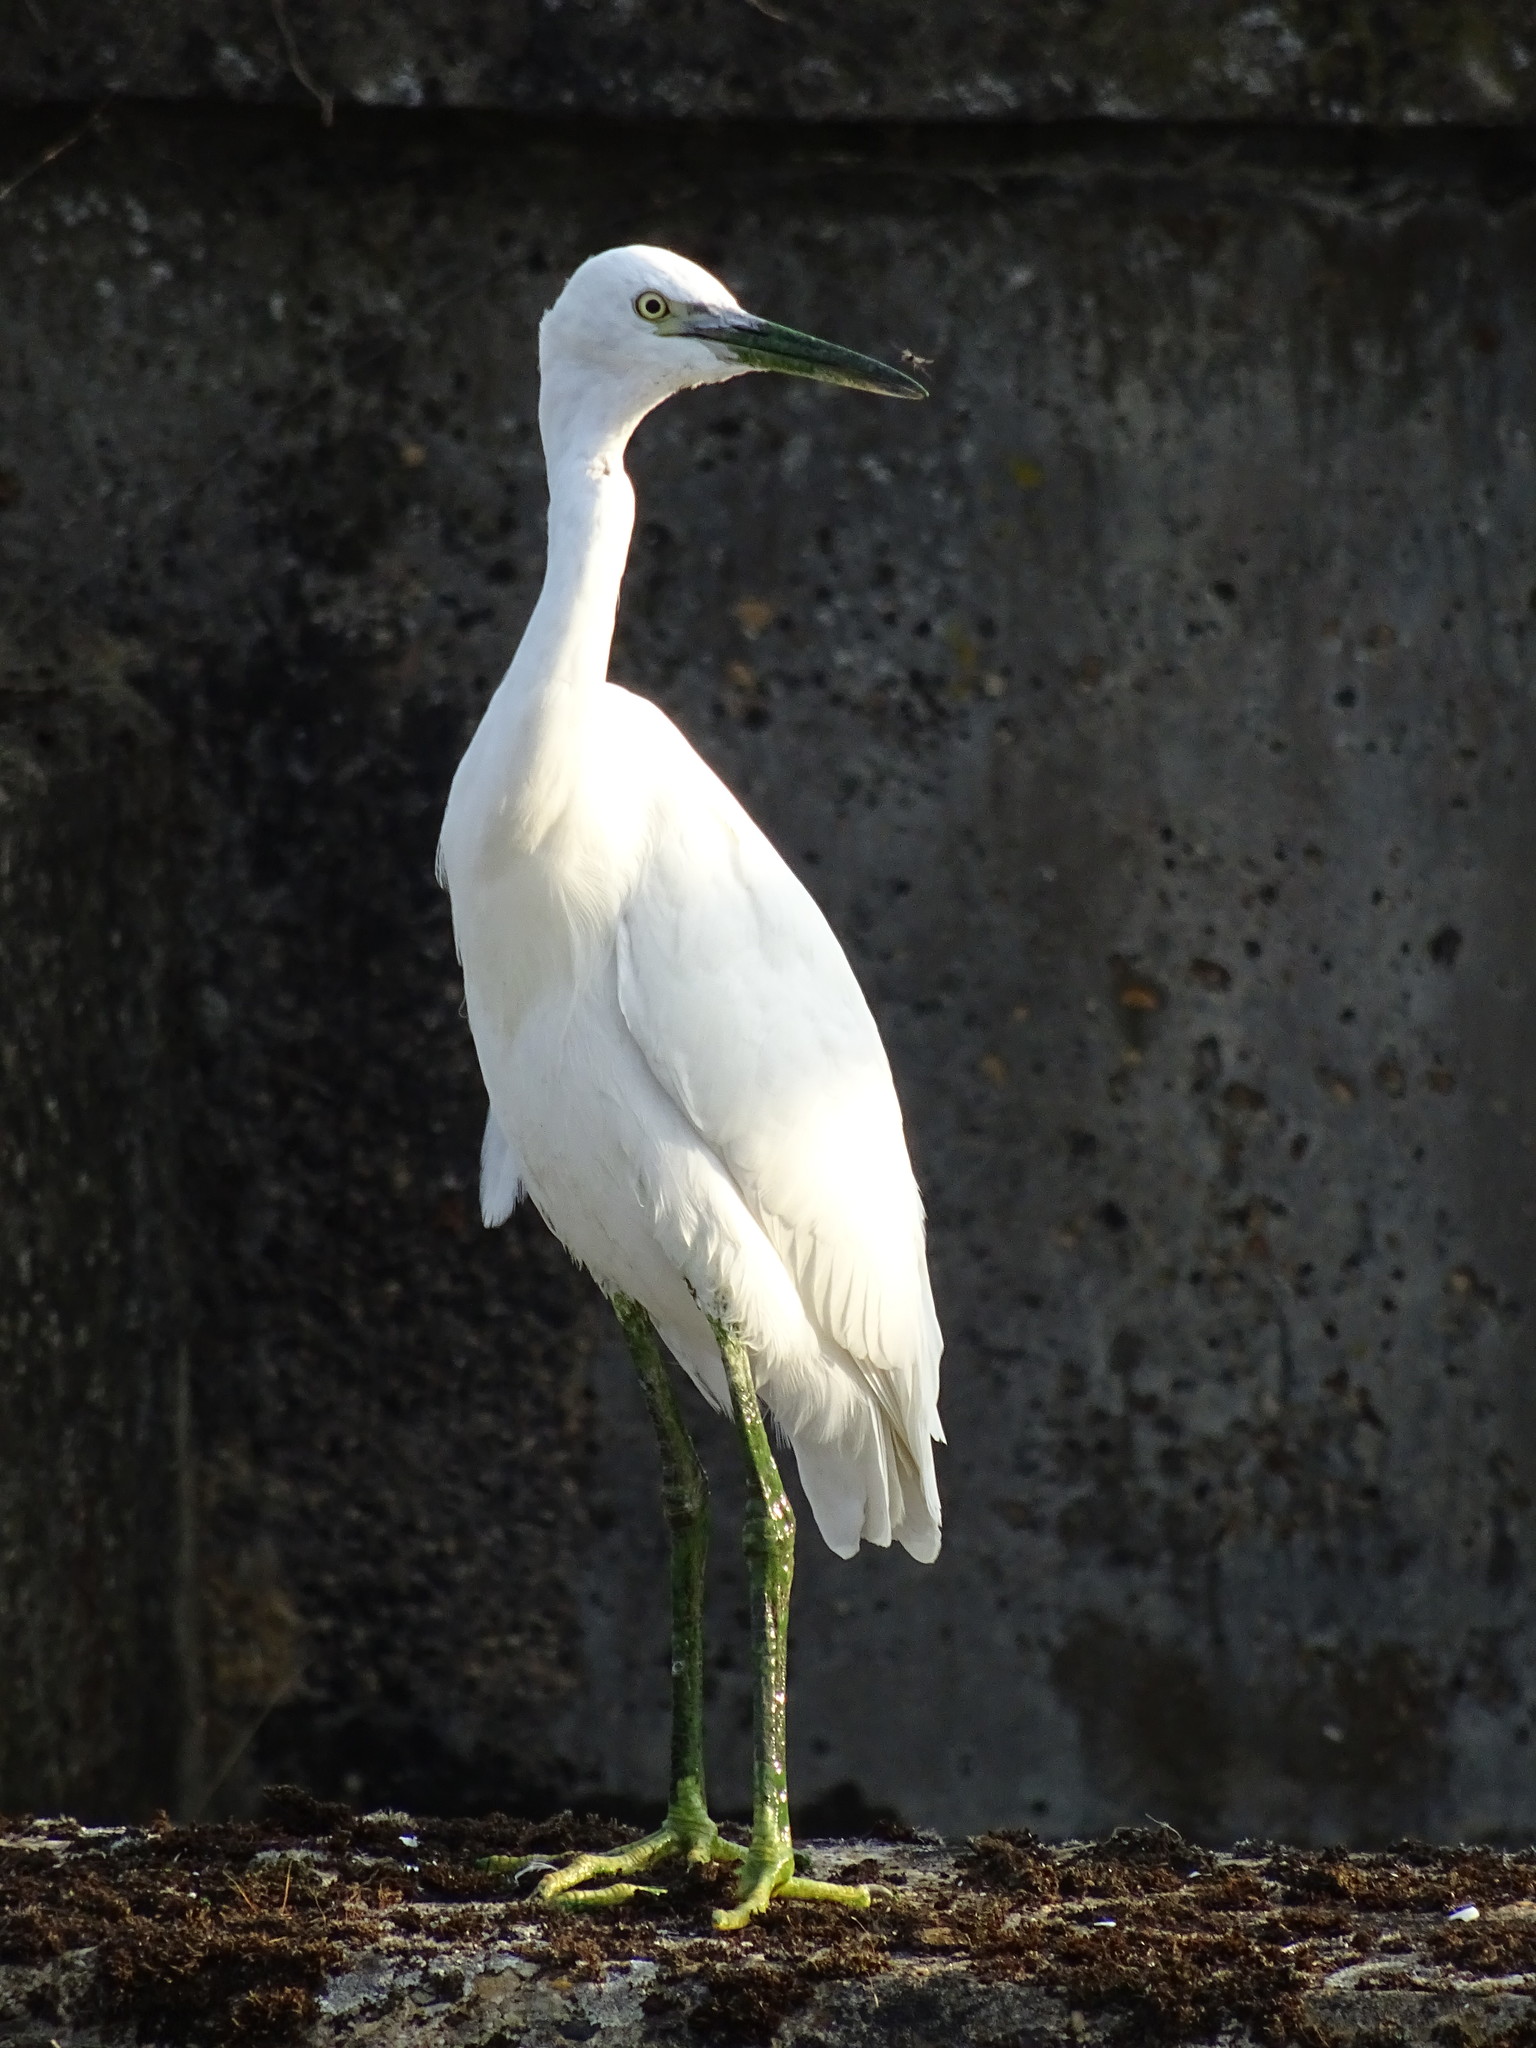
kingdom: Animalia
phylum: Chordata
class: Aves
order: Pelecaniformes
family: Ardeidae
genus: Egretta
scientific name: Egretta garzetta
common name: Little egret
